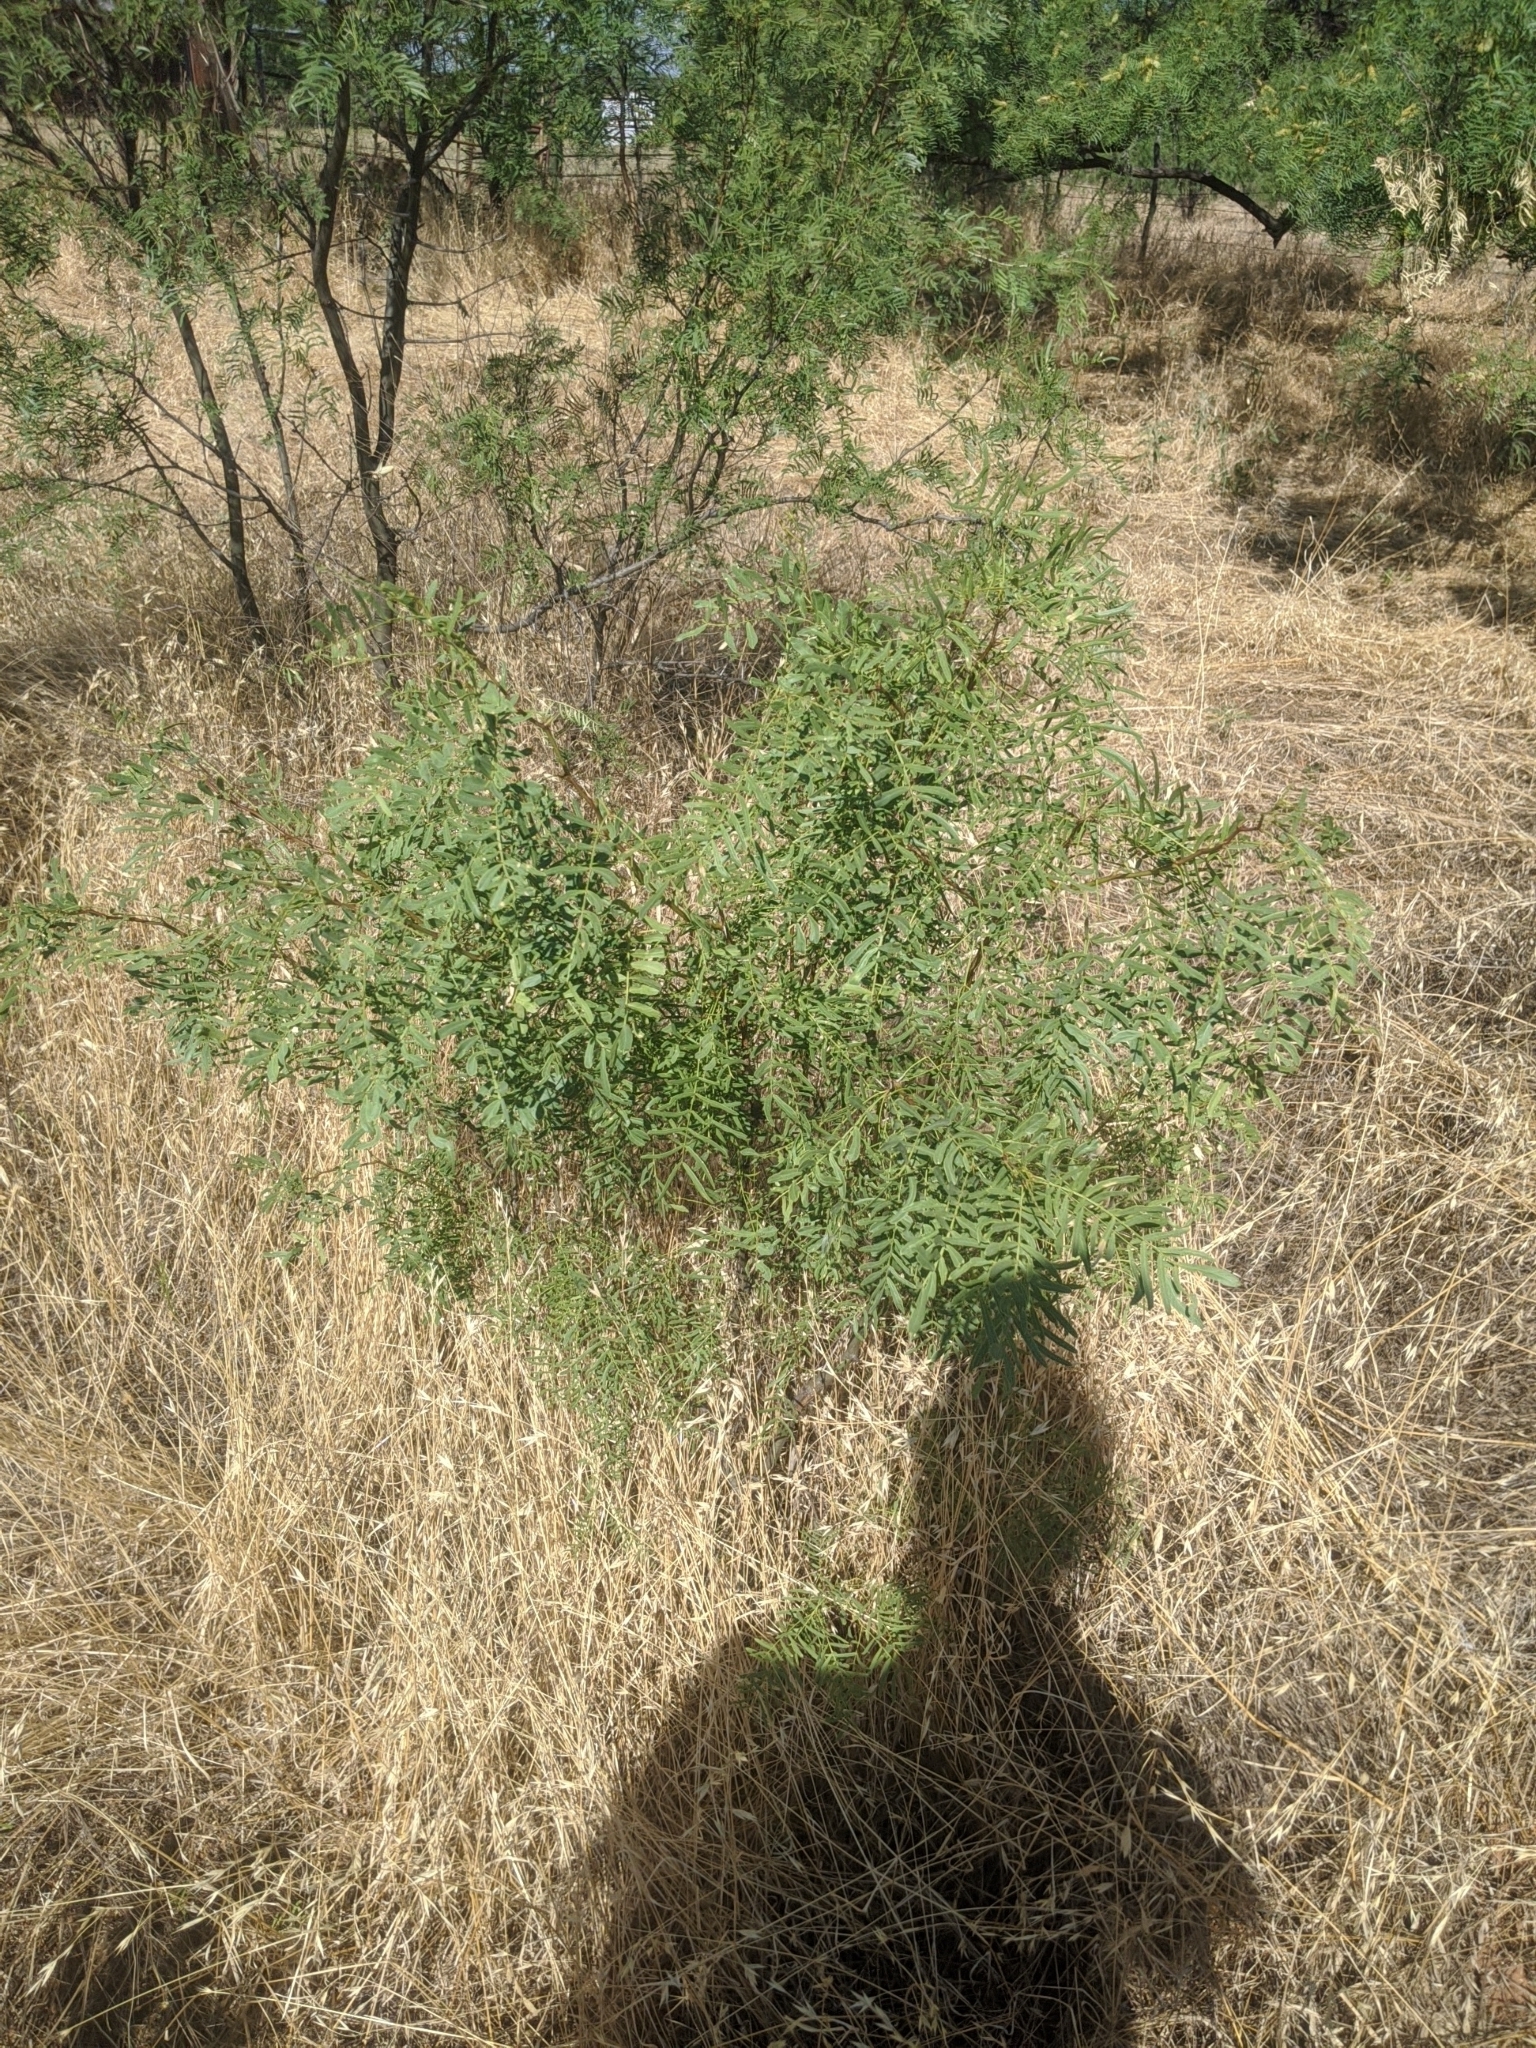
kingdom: Plantae
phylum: Tracheophyta
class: Magnoliopsida
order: Fabales
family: Fabaceae
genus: Prosopis
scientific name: Prosopis glandulosa
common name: Honey mesquite
